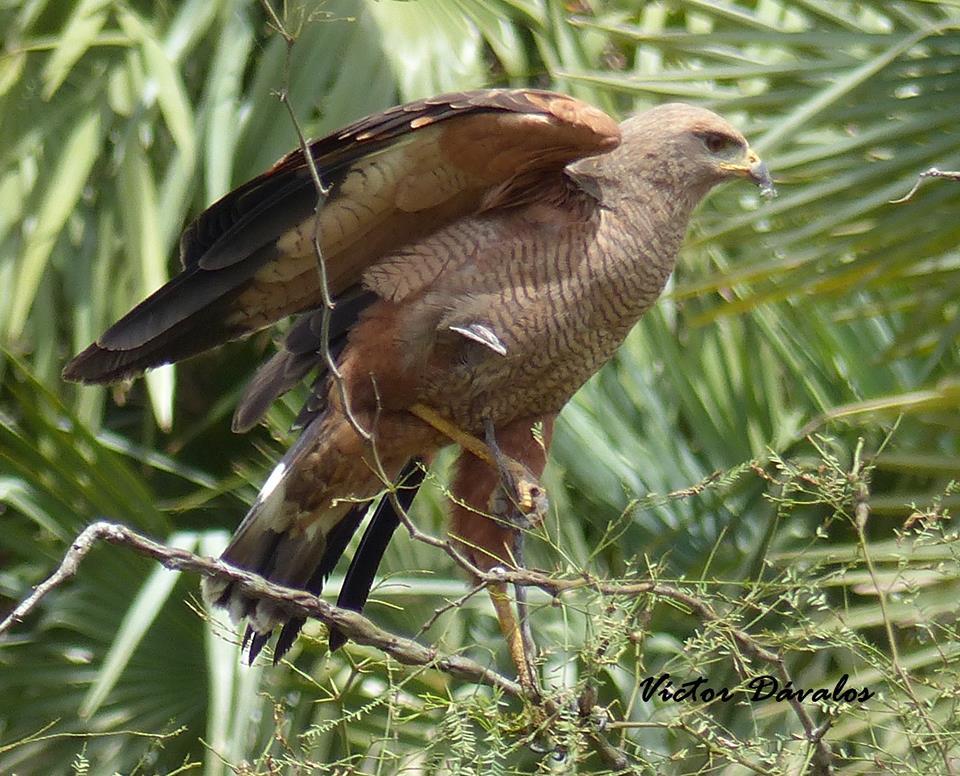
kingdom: Animalia
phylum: Chordata
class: Aves
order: Accipitriformes
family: Accipitridae
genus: Buteogallus
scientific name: Buteogallus meridionalis
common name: Savanna hawk
